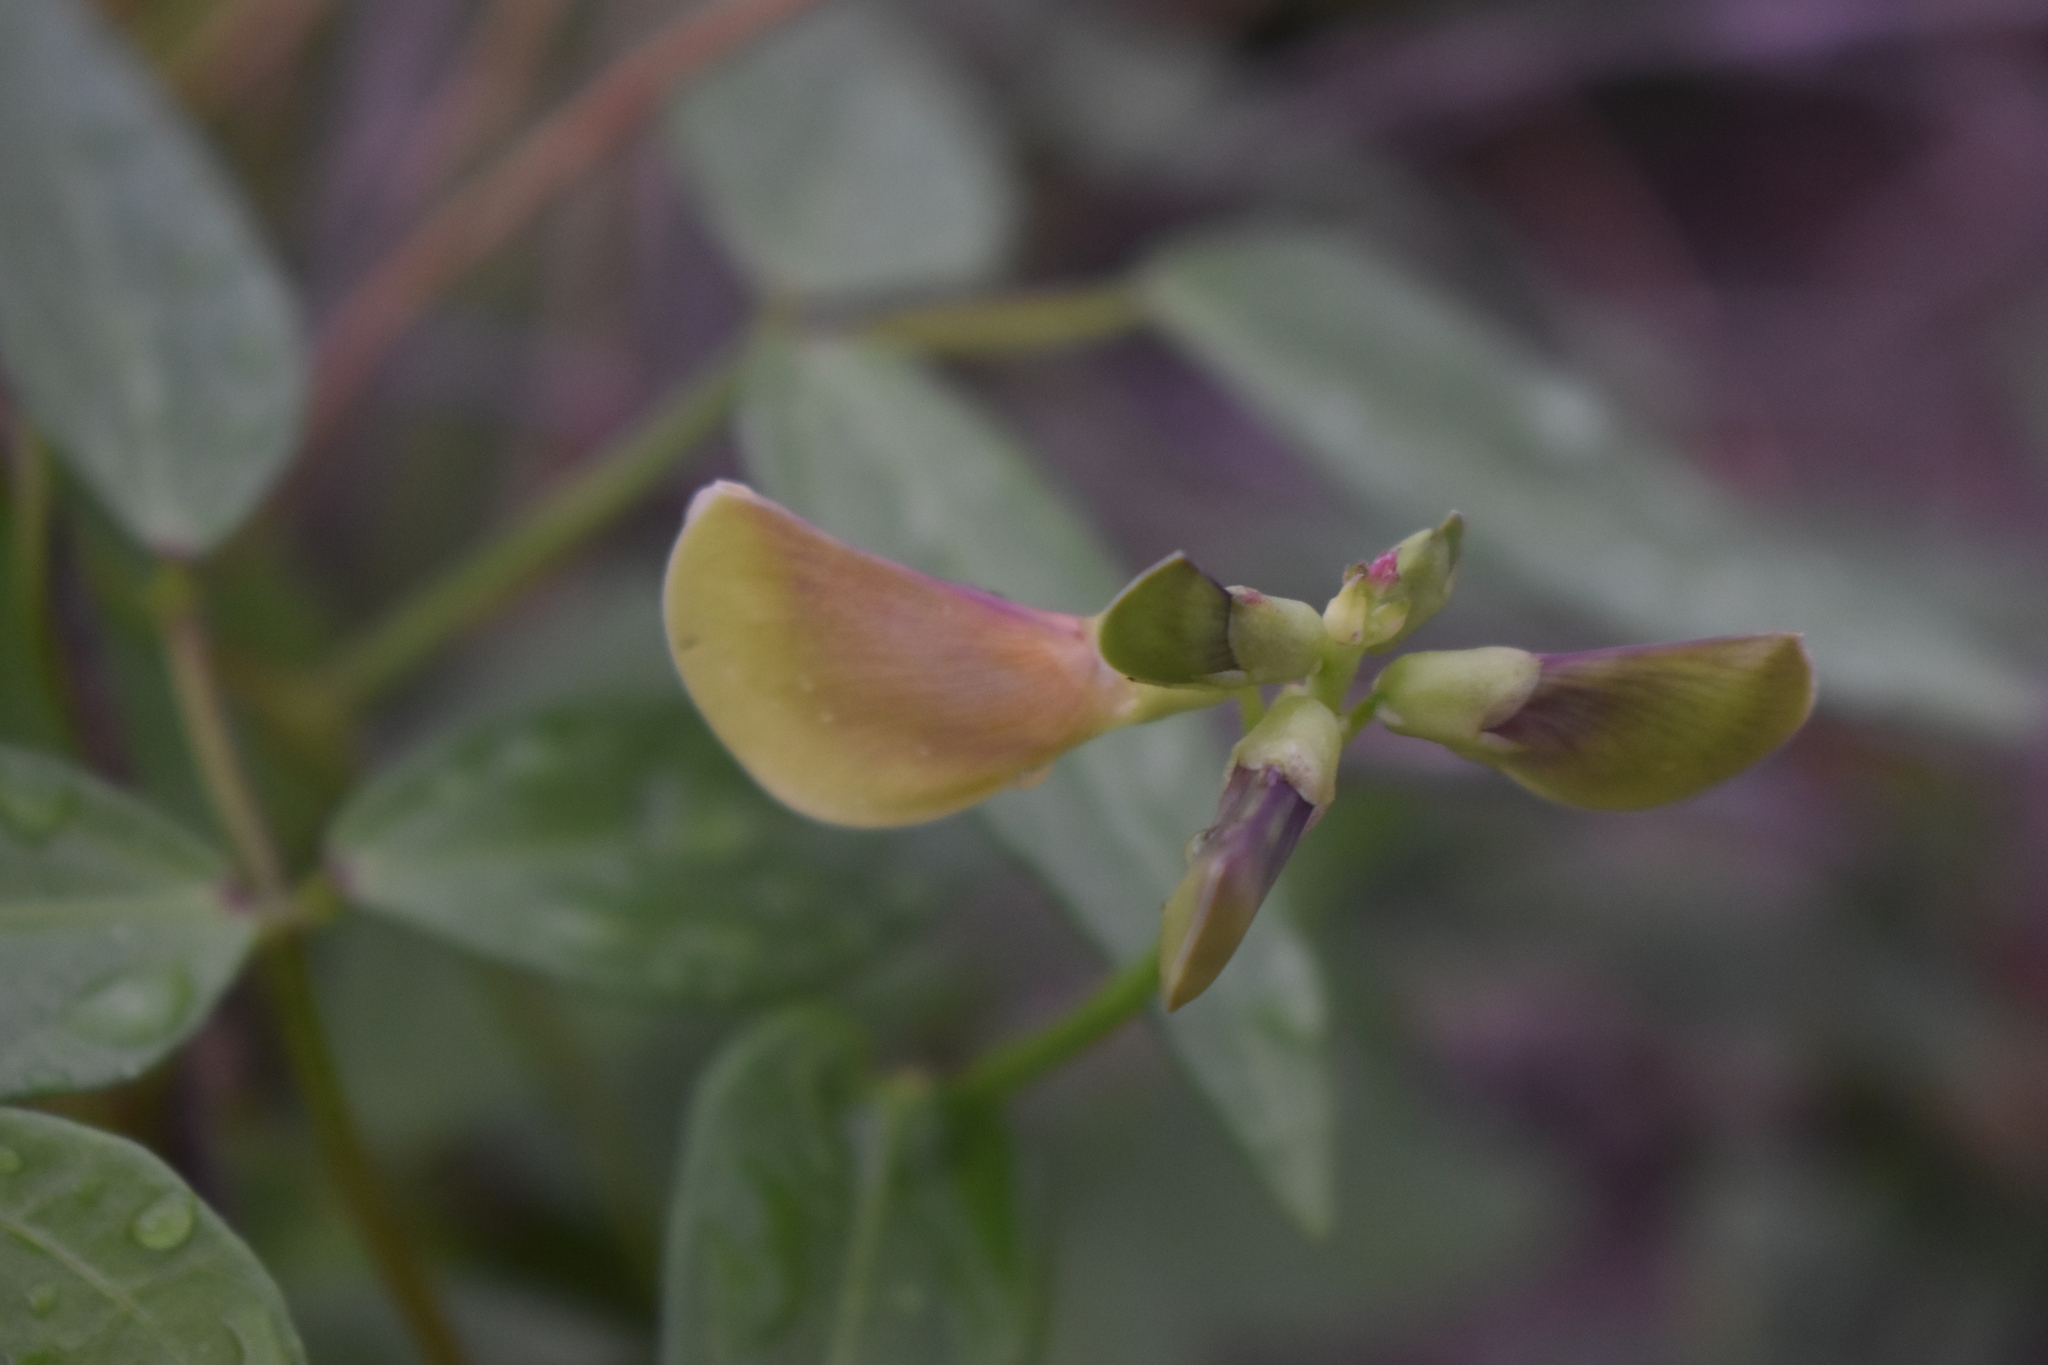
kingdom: Plantae
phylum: Tracheophyta
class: Magnoliopsida
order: Fabales
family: Fabaceae
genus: Vigna
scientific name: Vigna luteola
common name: Hairypod cowpea
